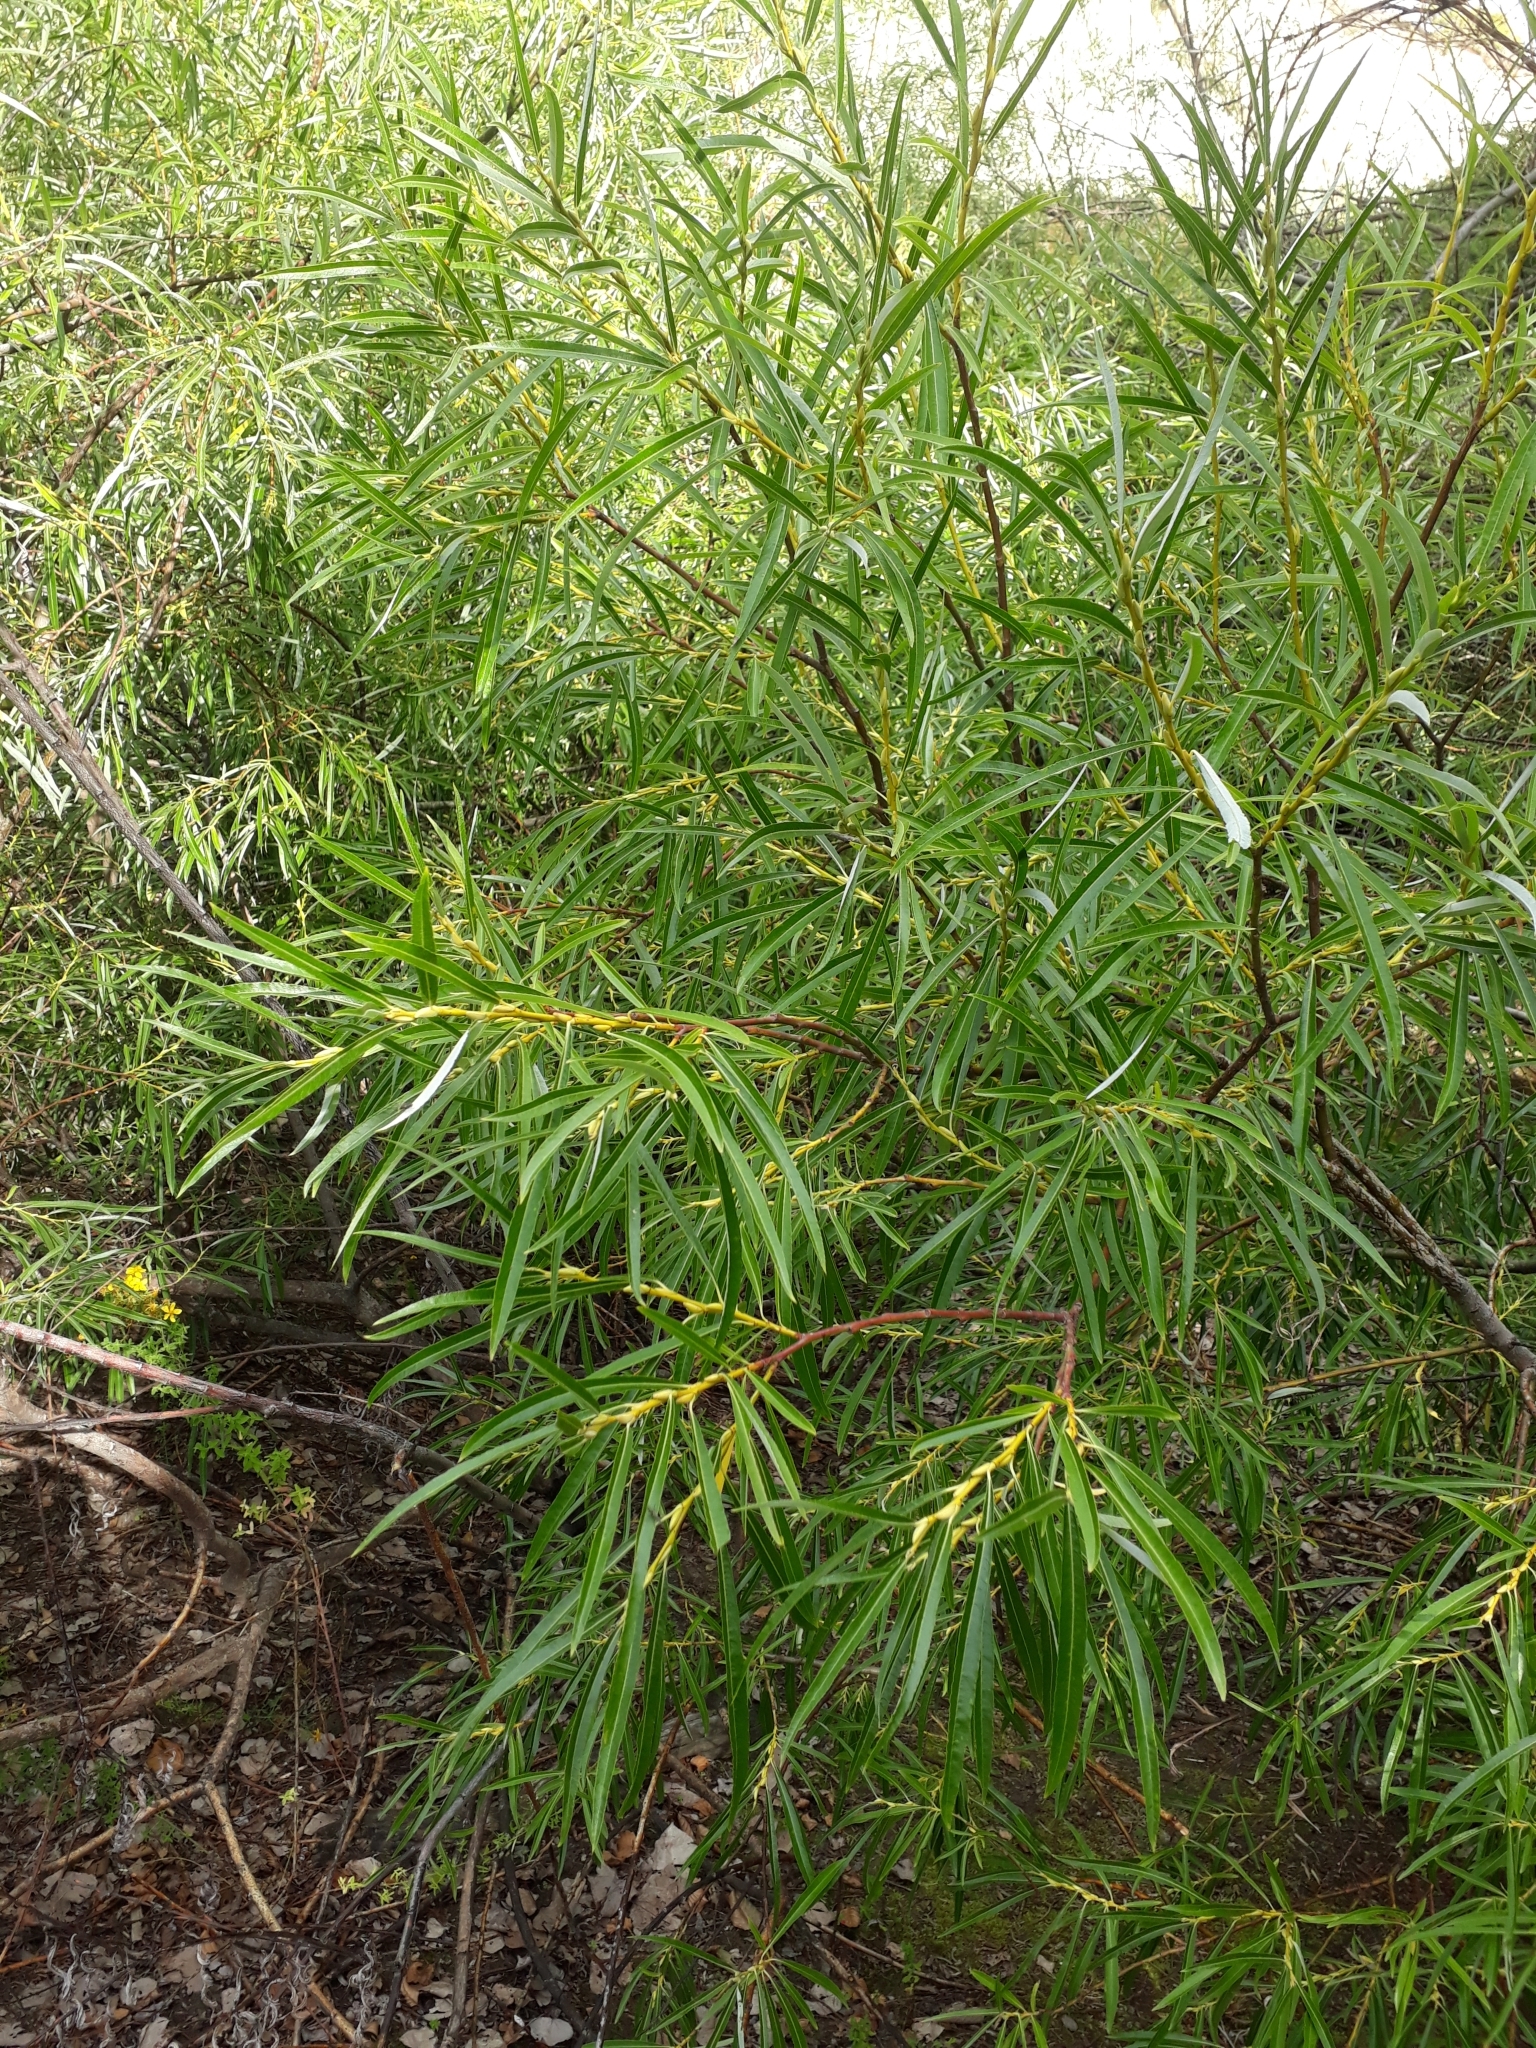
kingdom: Plantae
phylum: Tracheophyta
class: Magnoliopsida
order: Malpighiales
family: Salicaceae
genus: Salix
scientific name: Salix viminalis
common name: Osier
